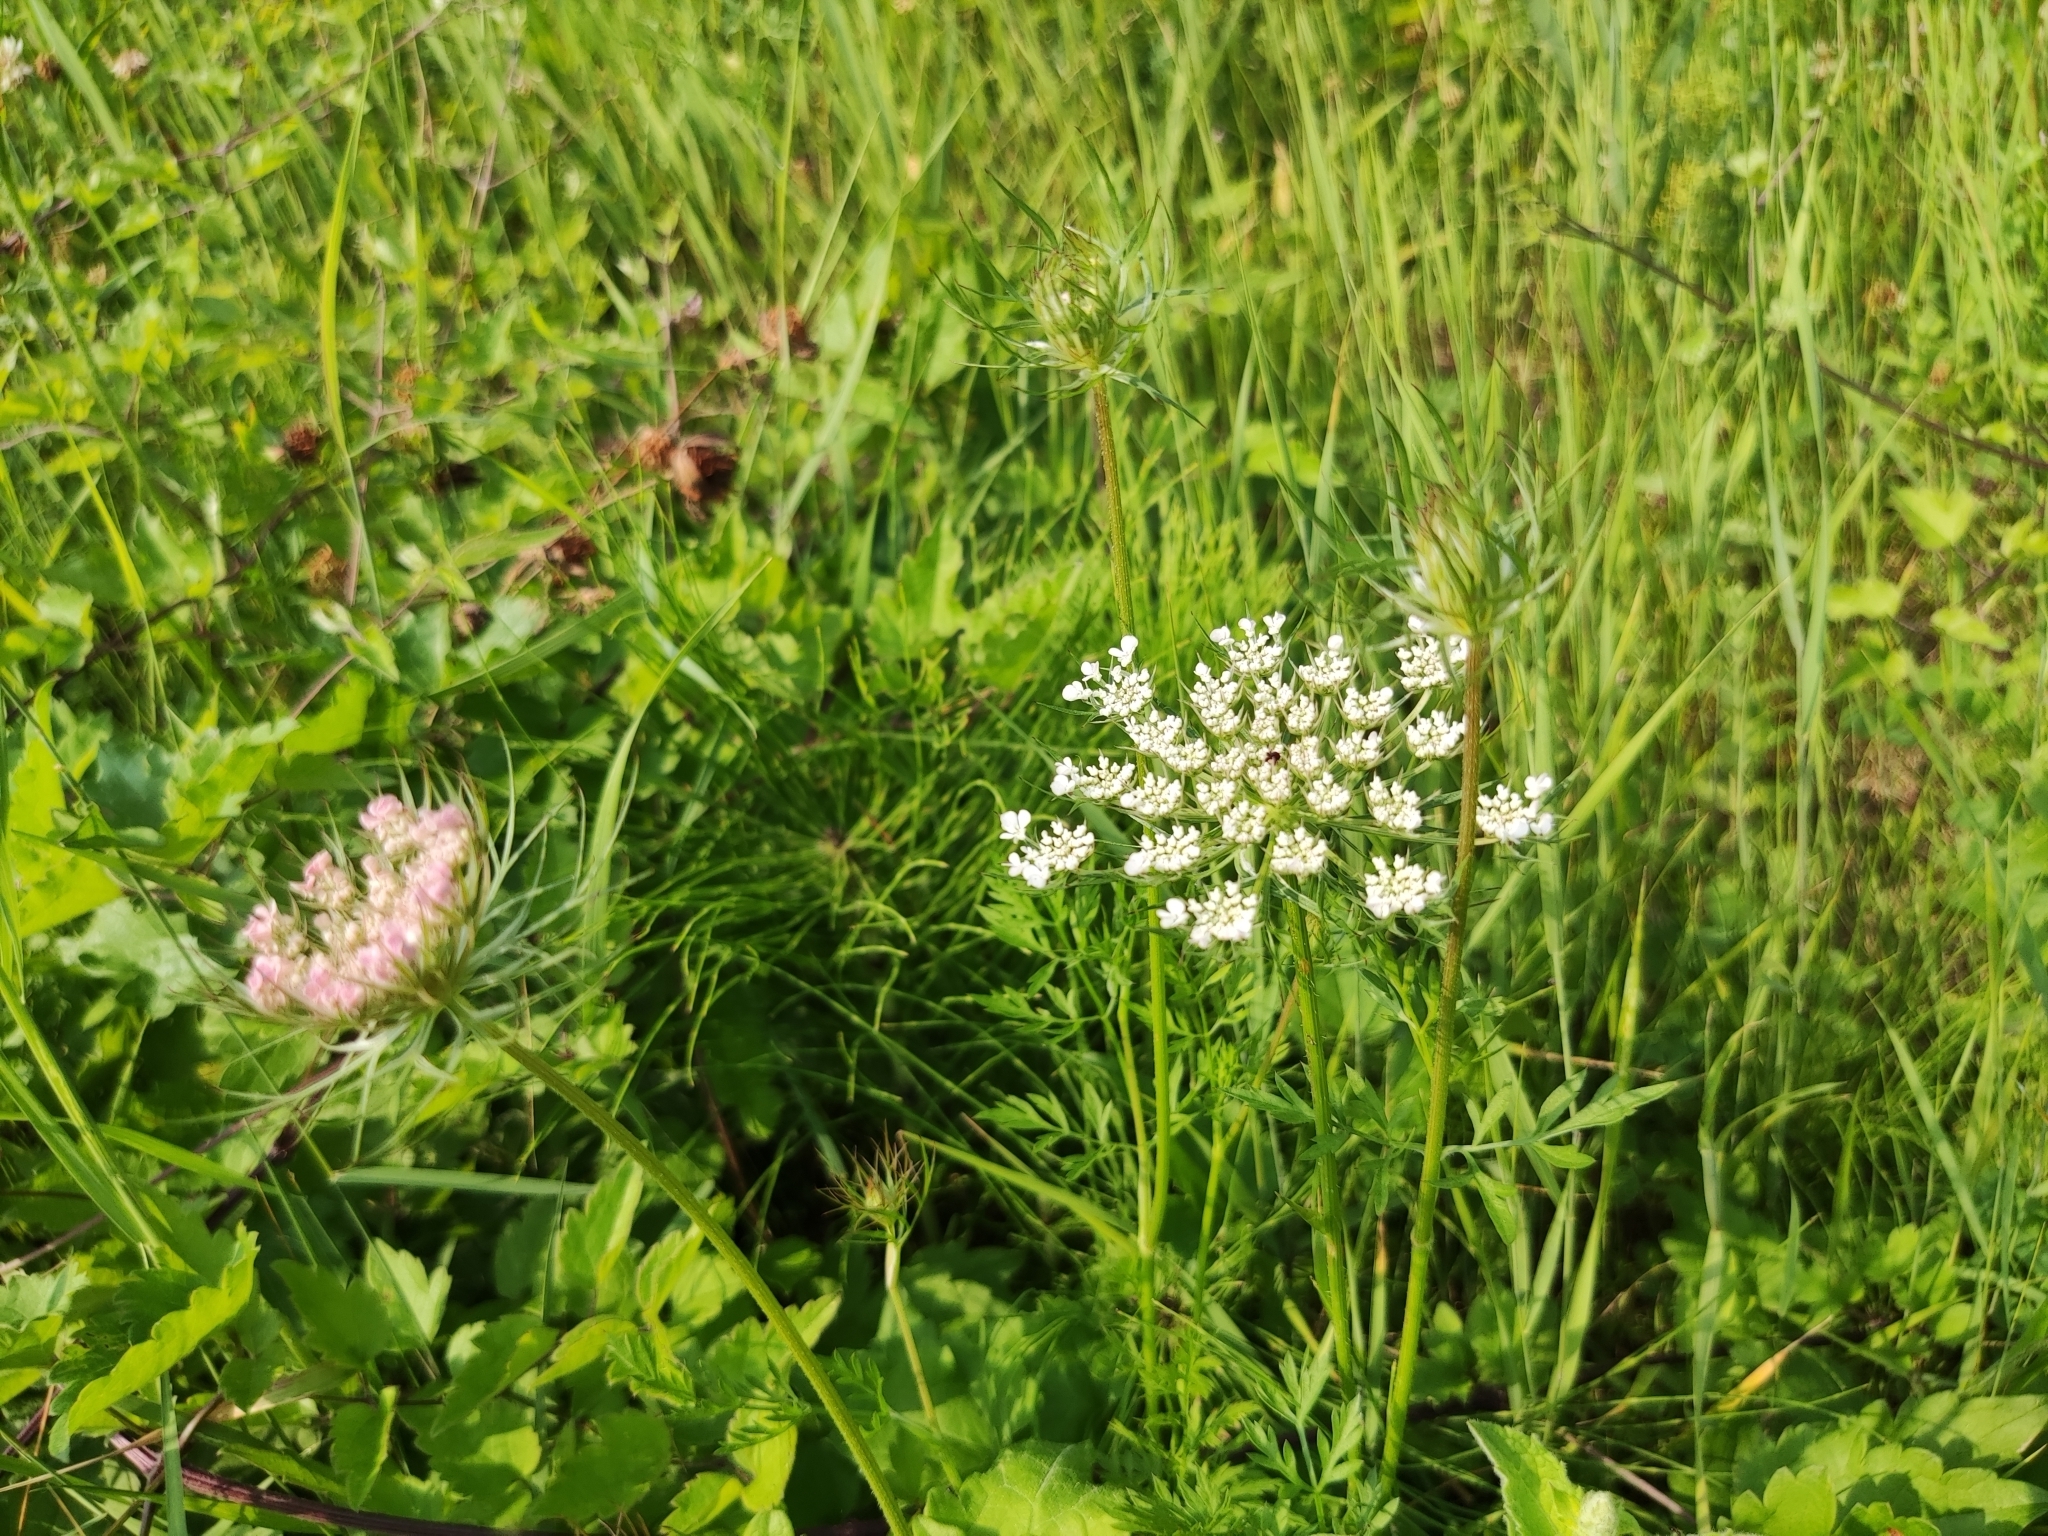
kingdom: Plantae
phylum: Tracheophyta
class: Magnoliopsida
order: Apiales
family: Apiaceae
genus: Daucus
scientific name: Daucus carota
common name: Wild carrot
